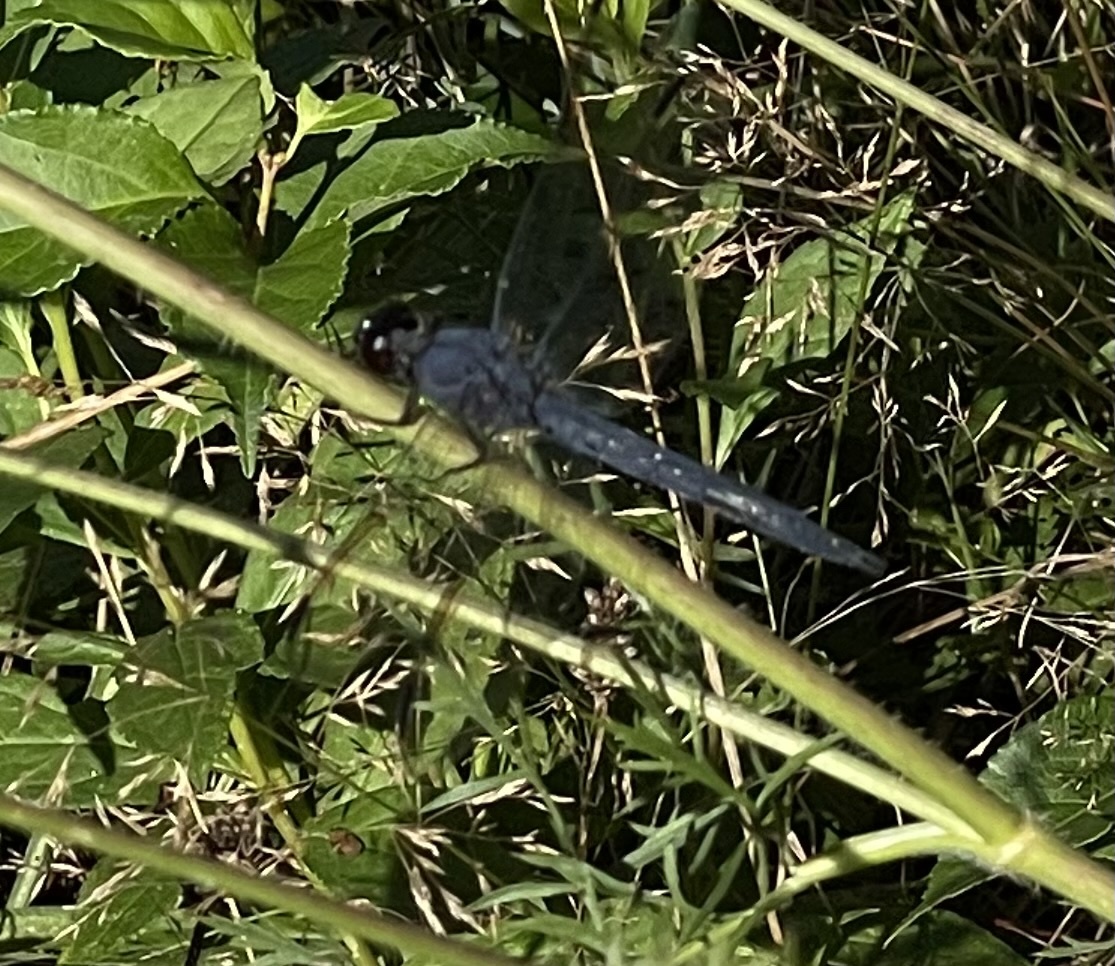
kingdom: Animalia
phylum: Arthropoda
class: Insecta
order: Odonata
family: Libellulidae
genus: Libellula
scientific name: Libellula incesta
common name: Slaty skimmer
